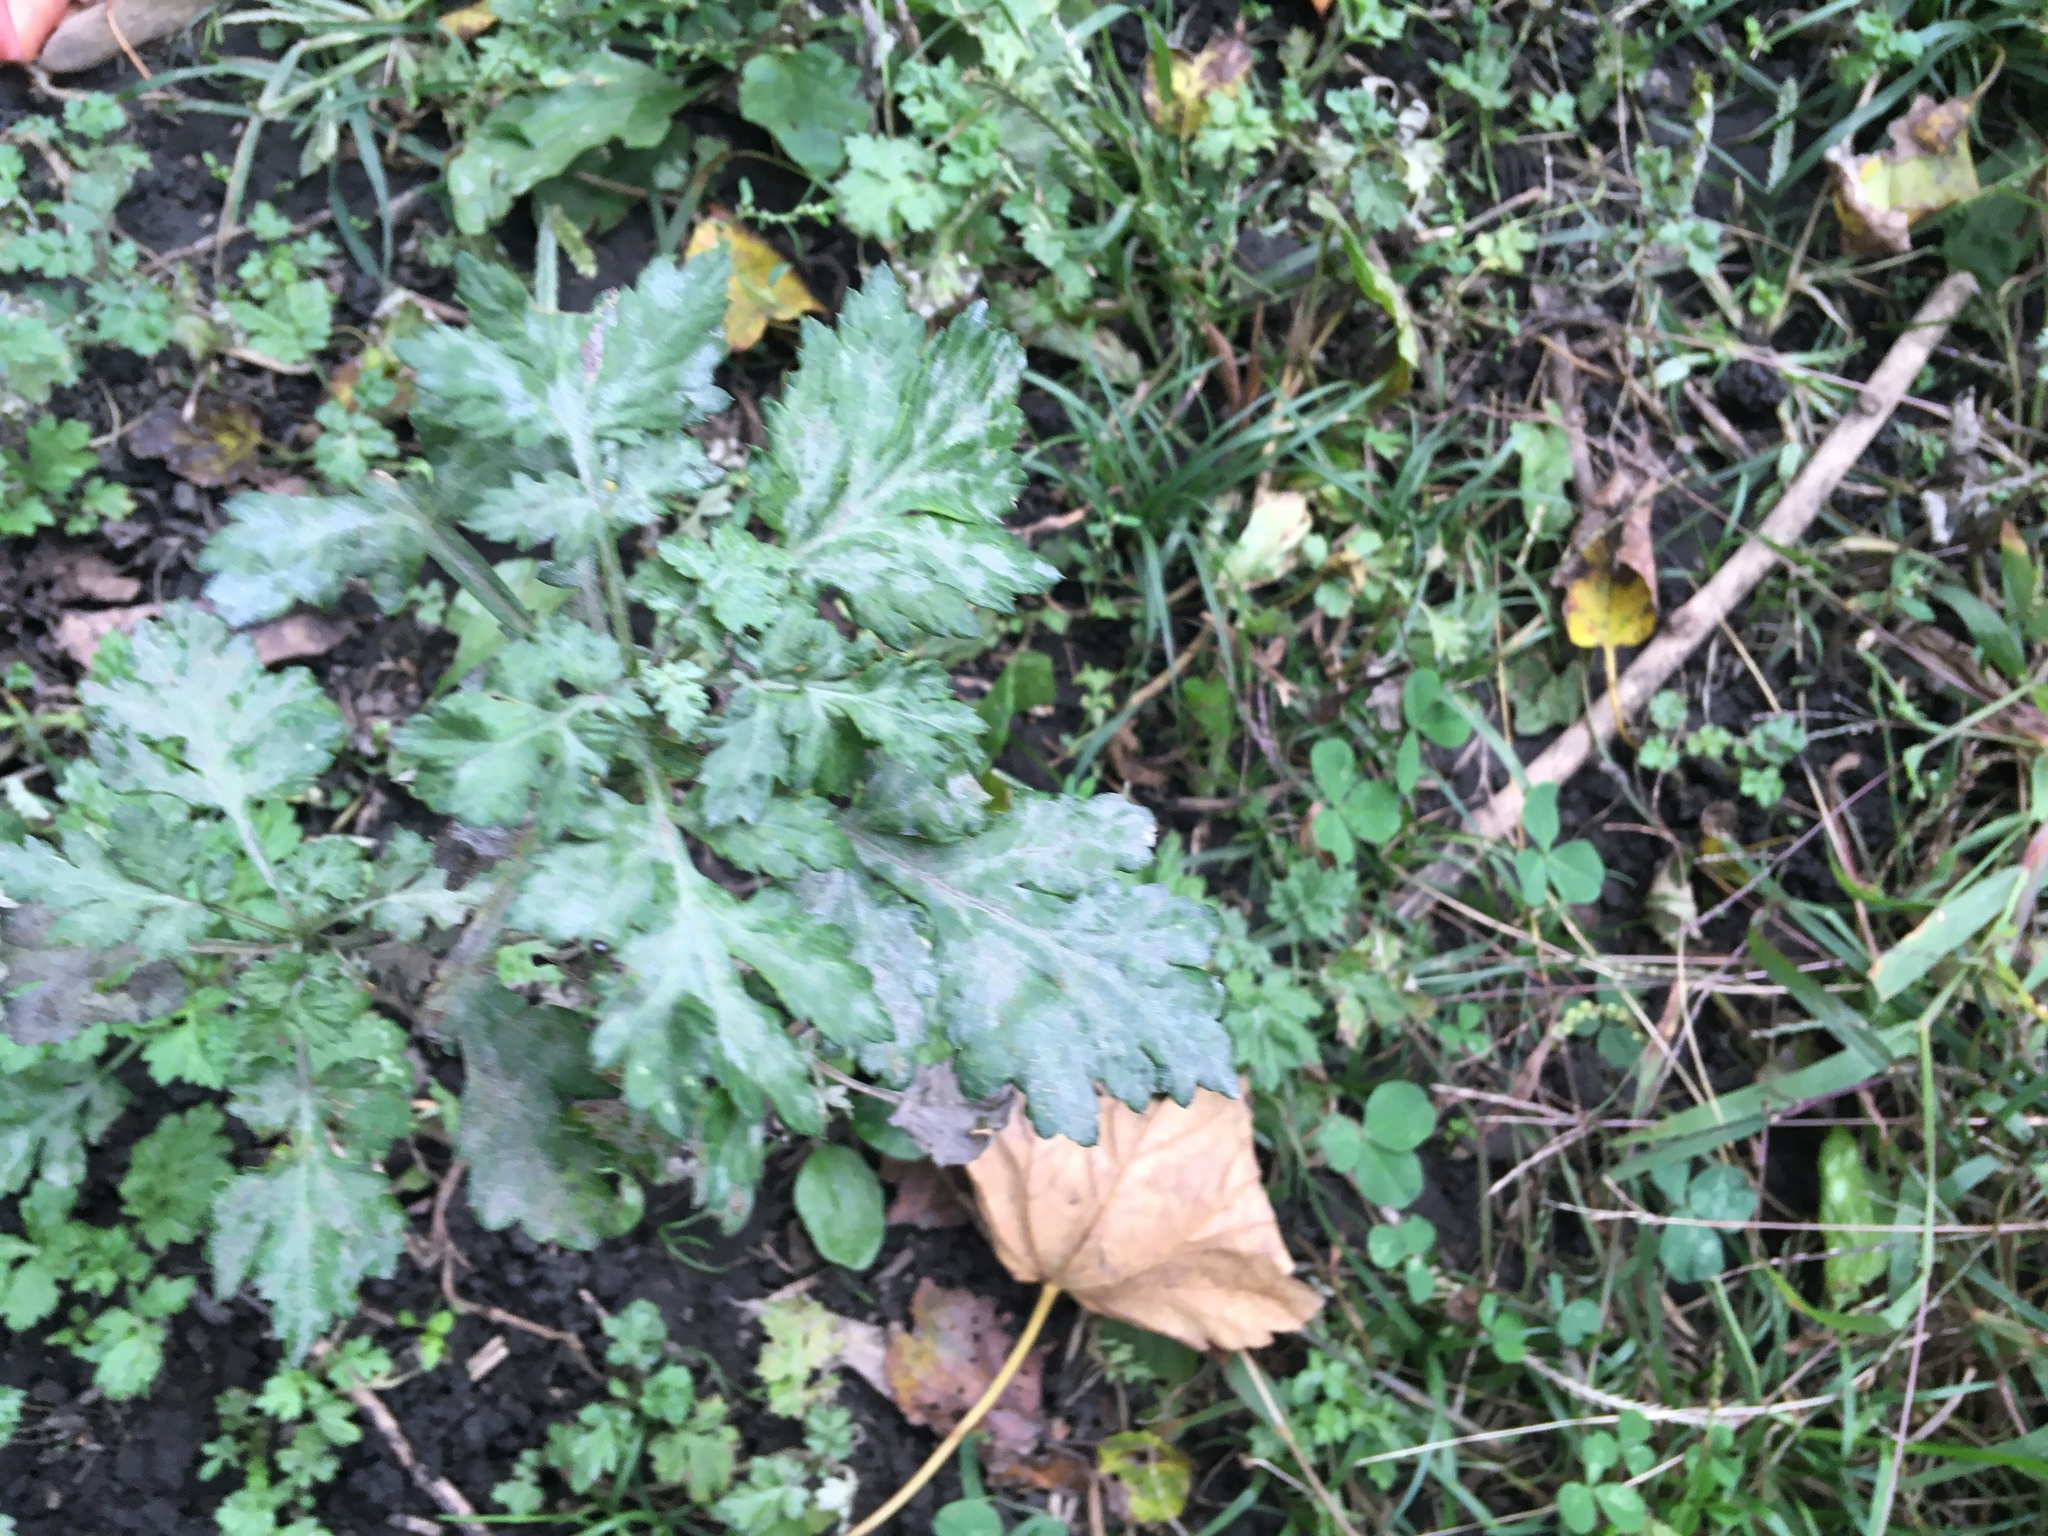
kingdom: Plantae
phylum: Tracheophyta
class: Magnoliopsida
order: Asterales
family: Asteraceae
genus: Artemisia
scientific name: Artemisia vulgaris
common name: Mugwort
